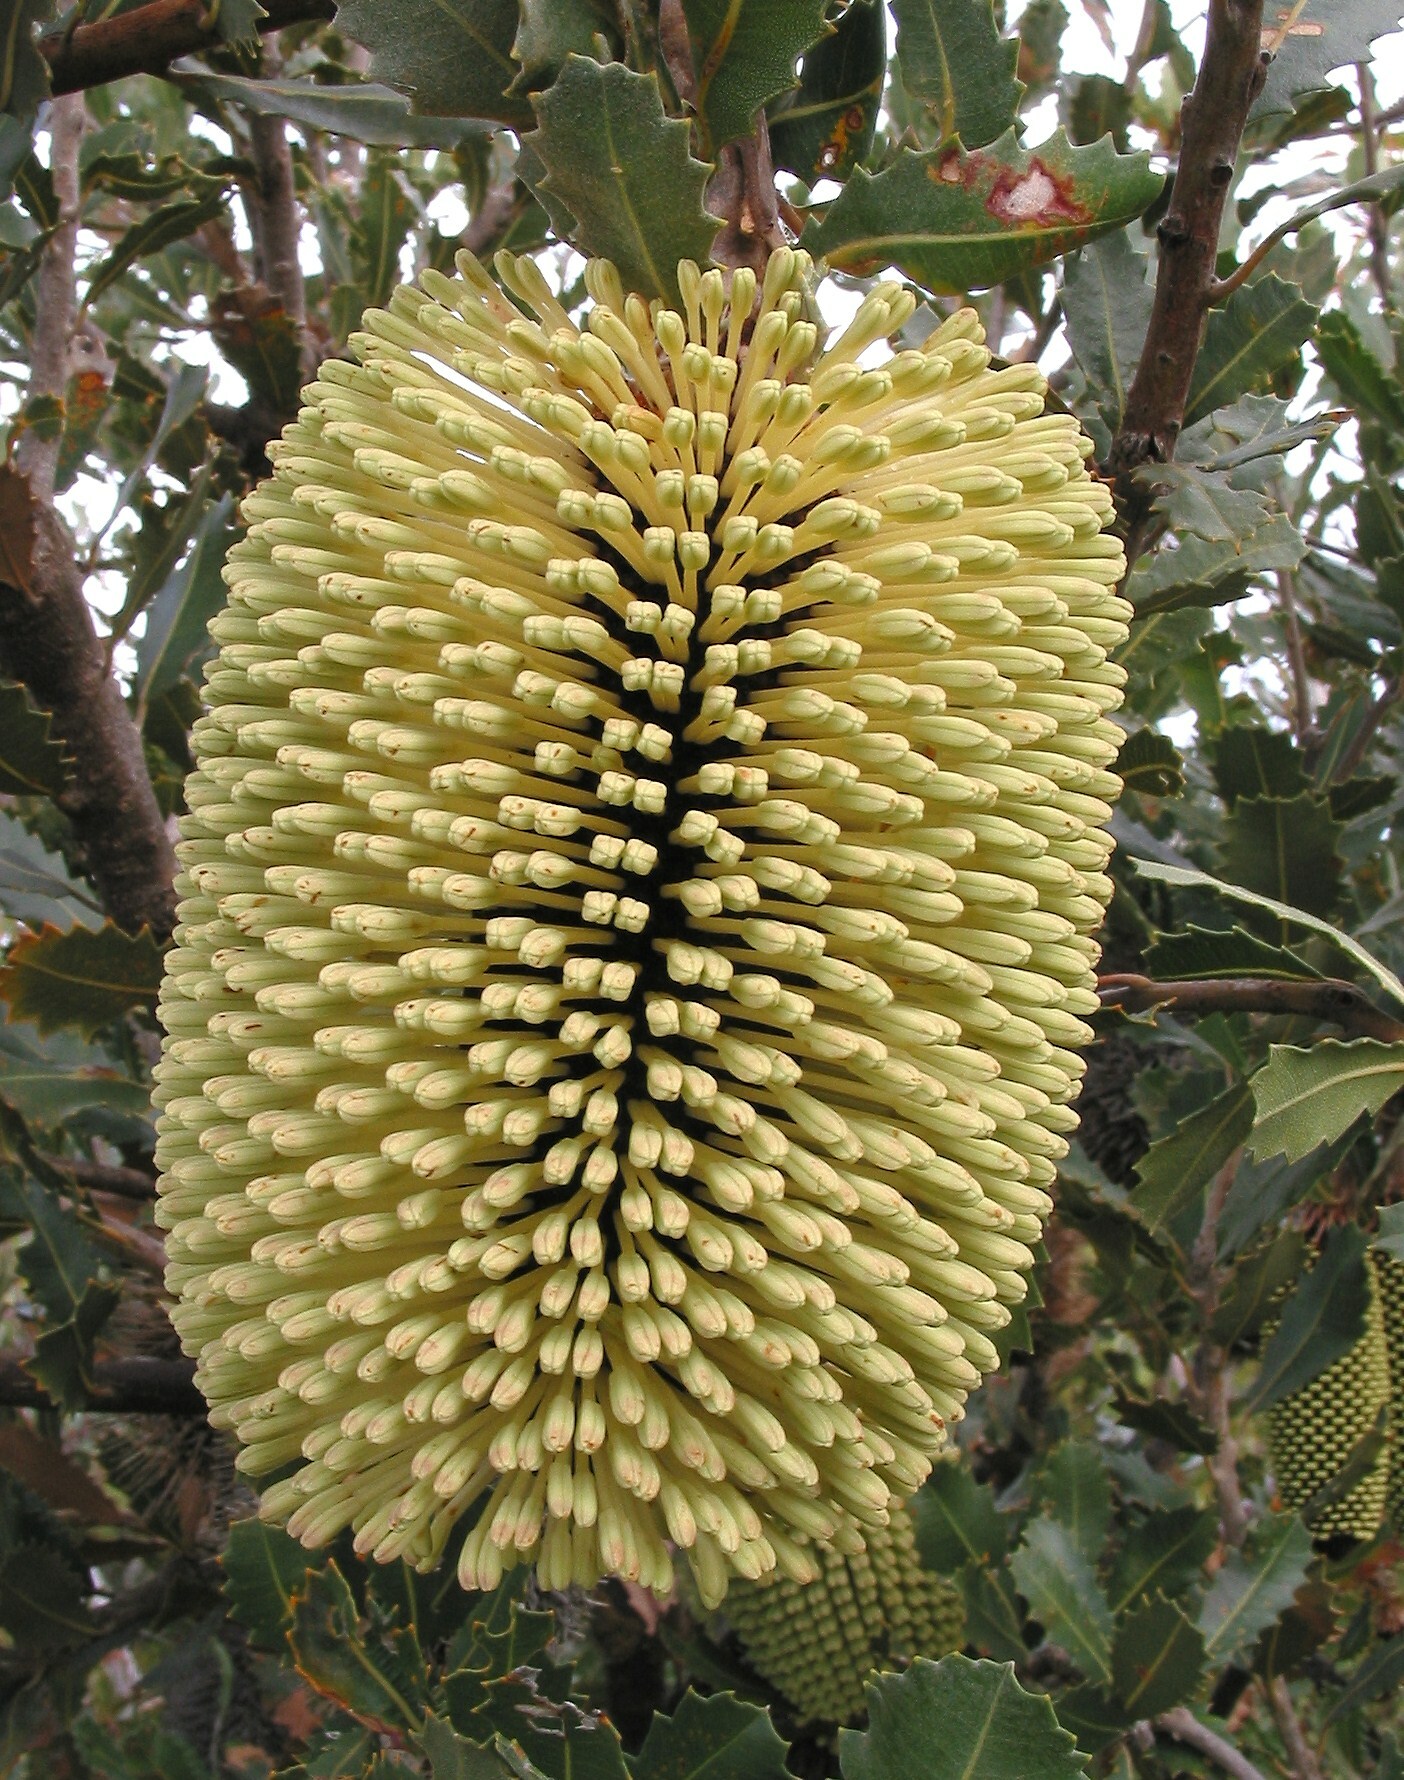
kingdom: Plantae
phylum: Tracheophyta
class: Magnoliopsida
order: Proteales
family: Proteaceae
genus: Banksia
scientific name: Banksia lemanniana
